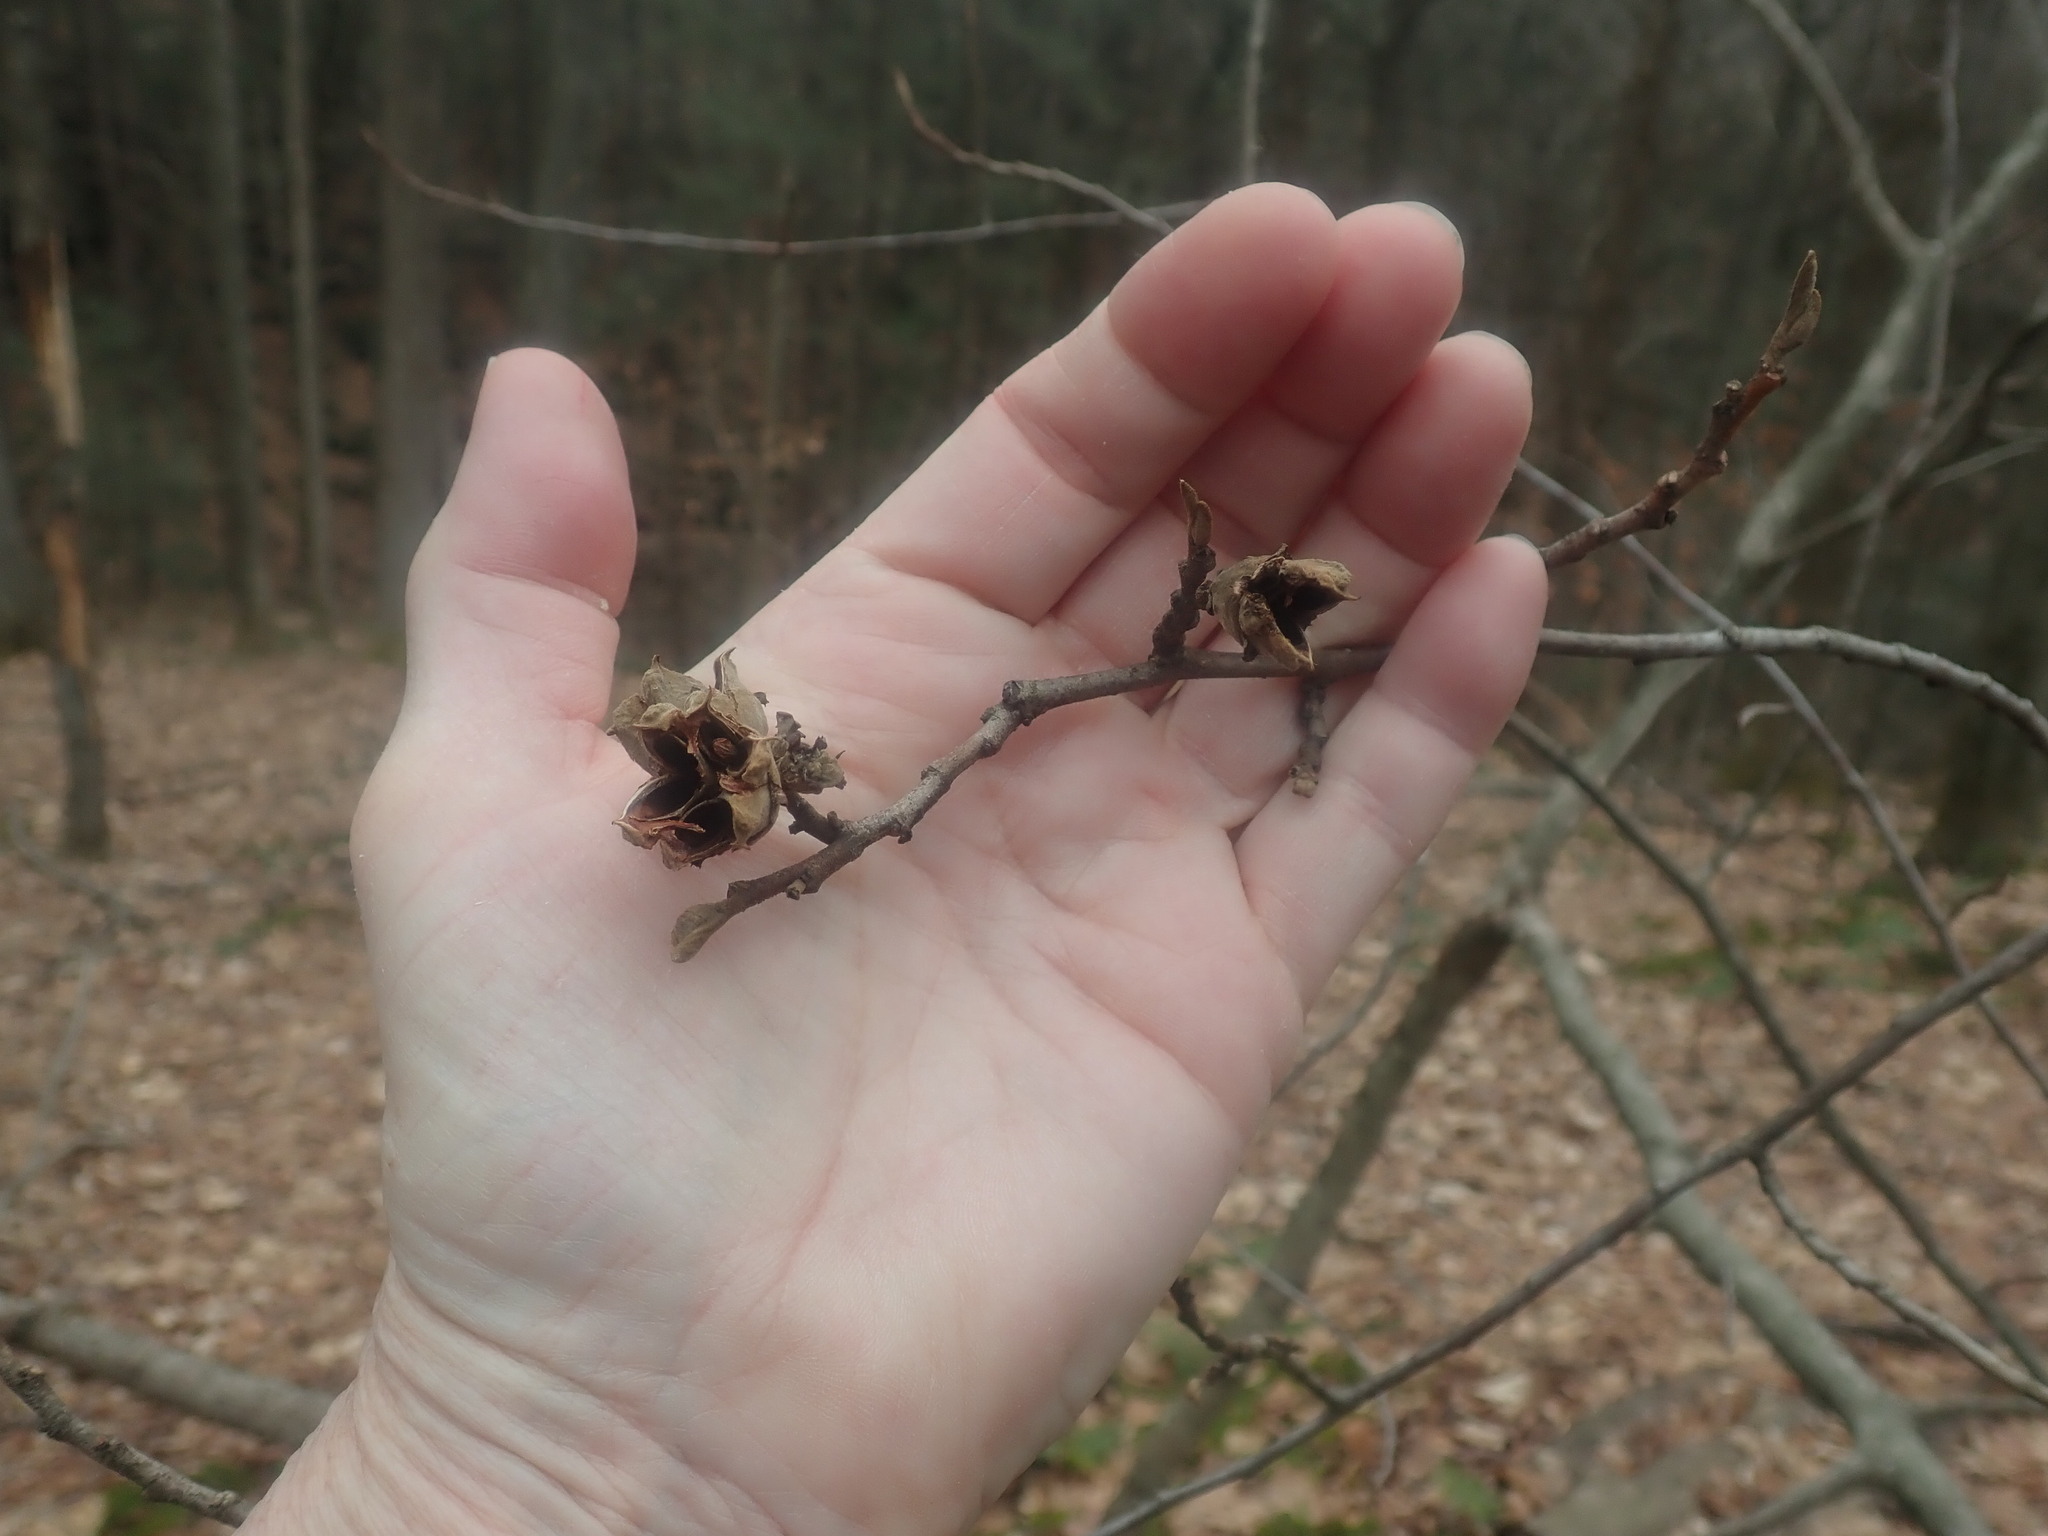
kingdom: Plantae
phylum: Tracheophyta
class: Magnoliopsida
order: Saxifragales
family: Hamamelidaceae
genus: Hamamelis
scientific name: Hamamelis virginiana
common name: Witch-hazel
